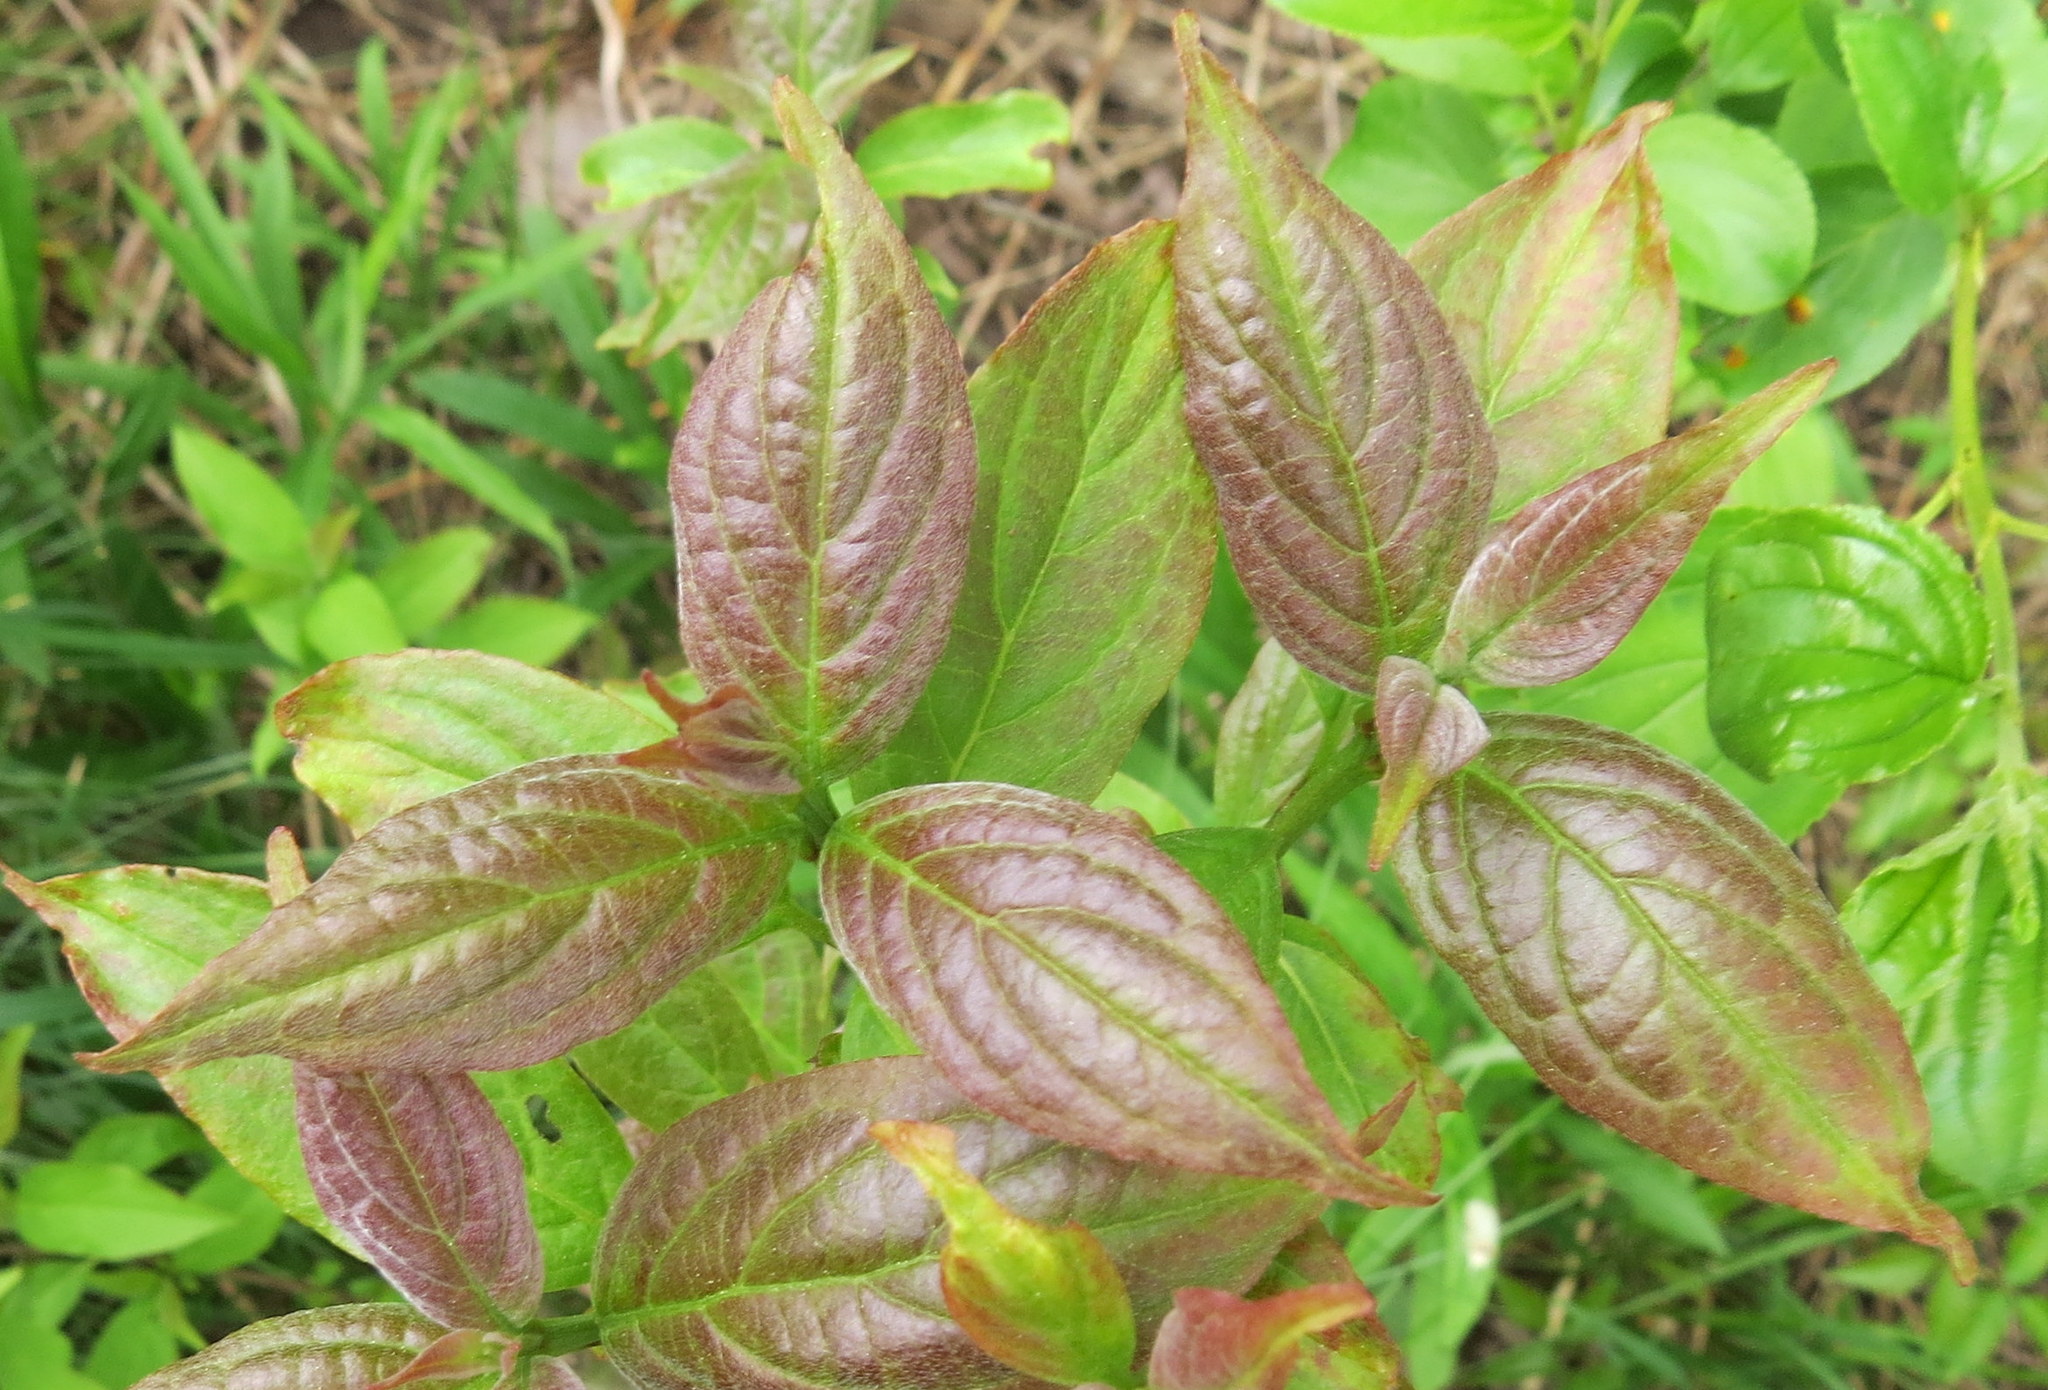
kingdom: Plantae
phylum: Tracheophyta
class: Magnoliopsida
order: Cornales
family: Cornaceae
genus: Cornus
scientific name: Cornus sericea
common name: Red-osier dogwood
